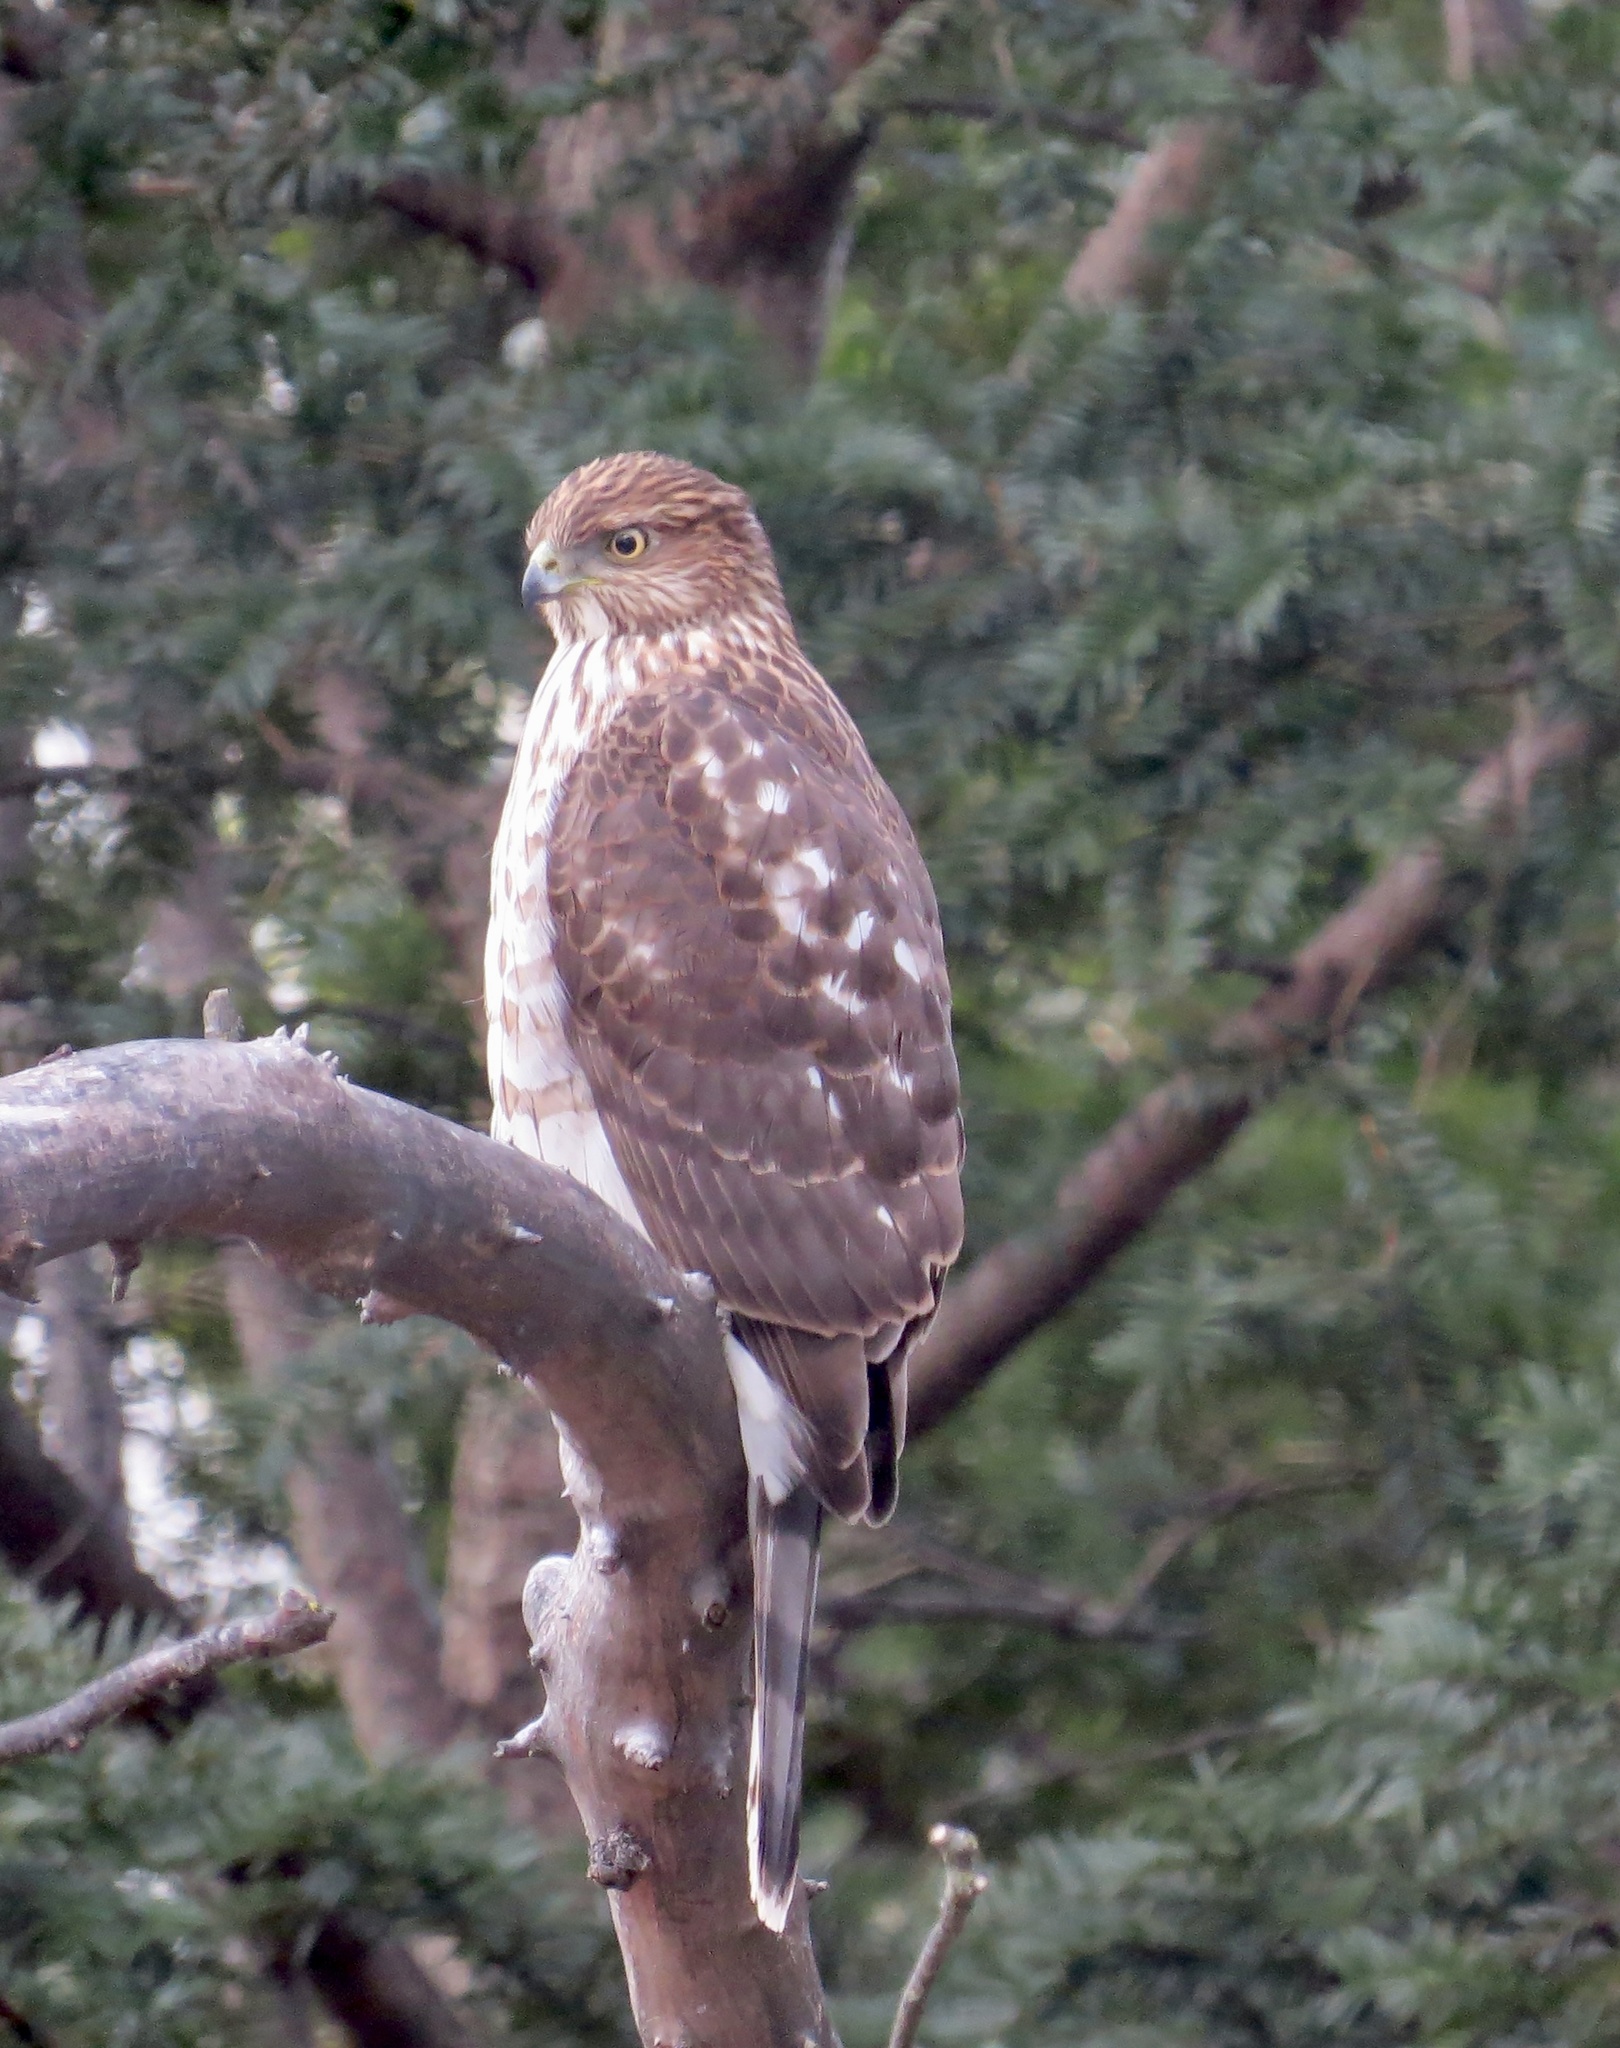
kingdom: Animalia
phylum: Chordata
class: Aves
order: Accipitriformes
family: Accipitridae
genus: Accipiter
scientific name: Accipiter cooperii
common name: Cooper's hawk
